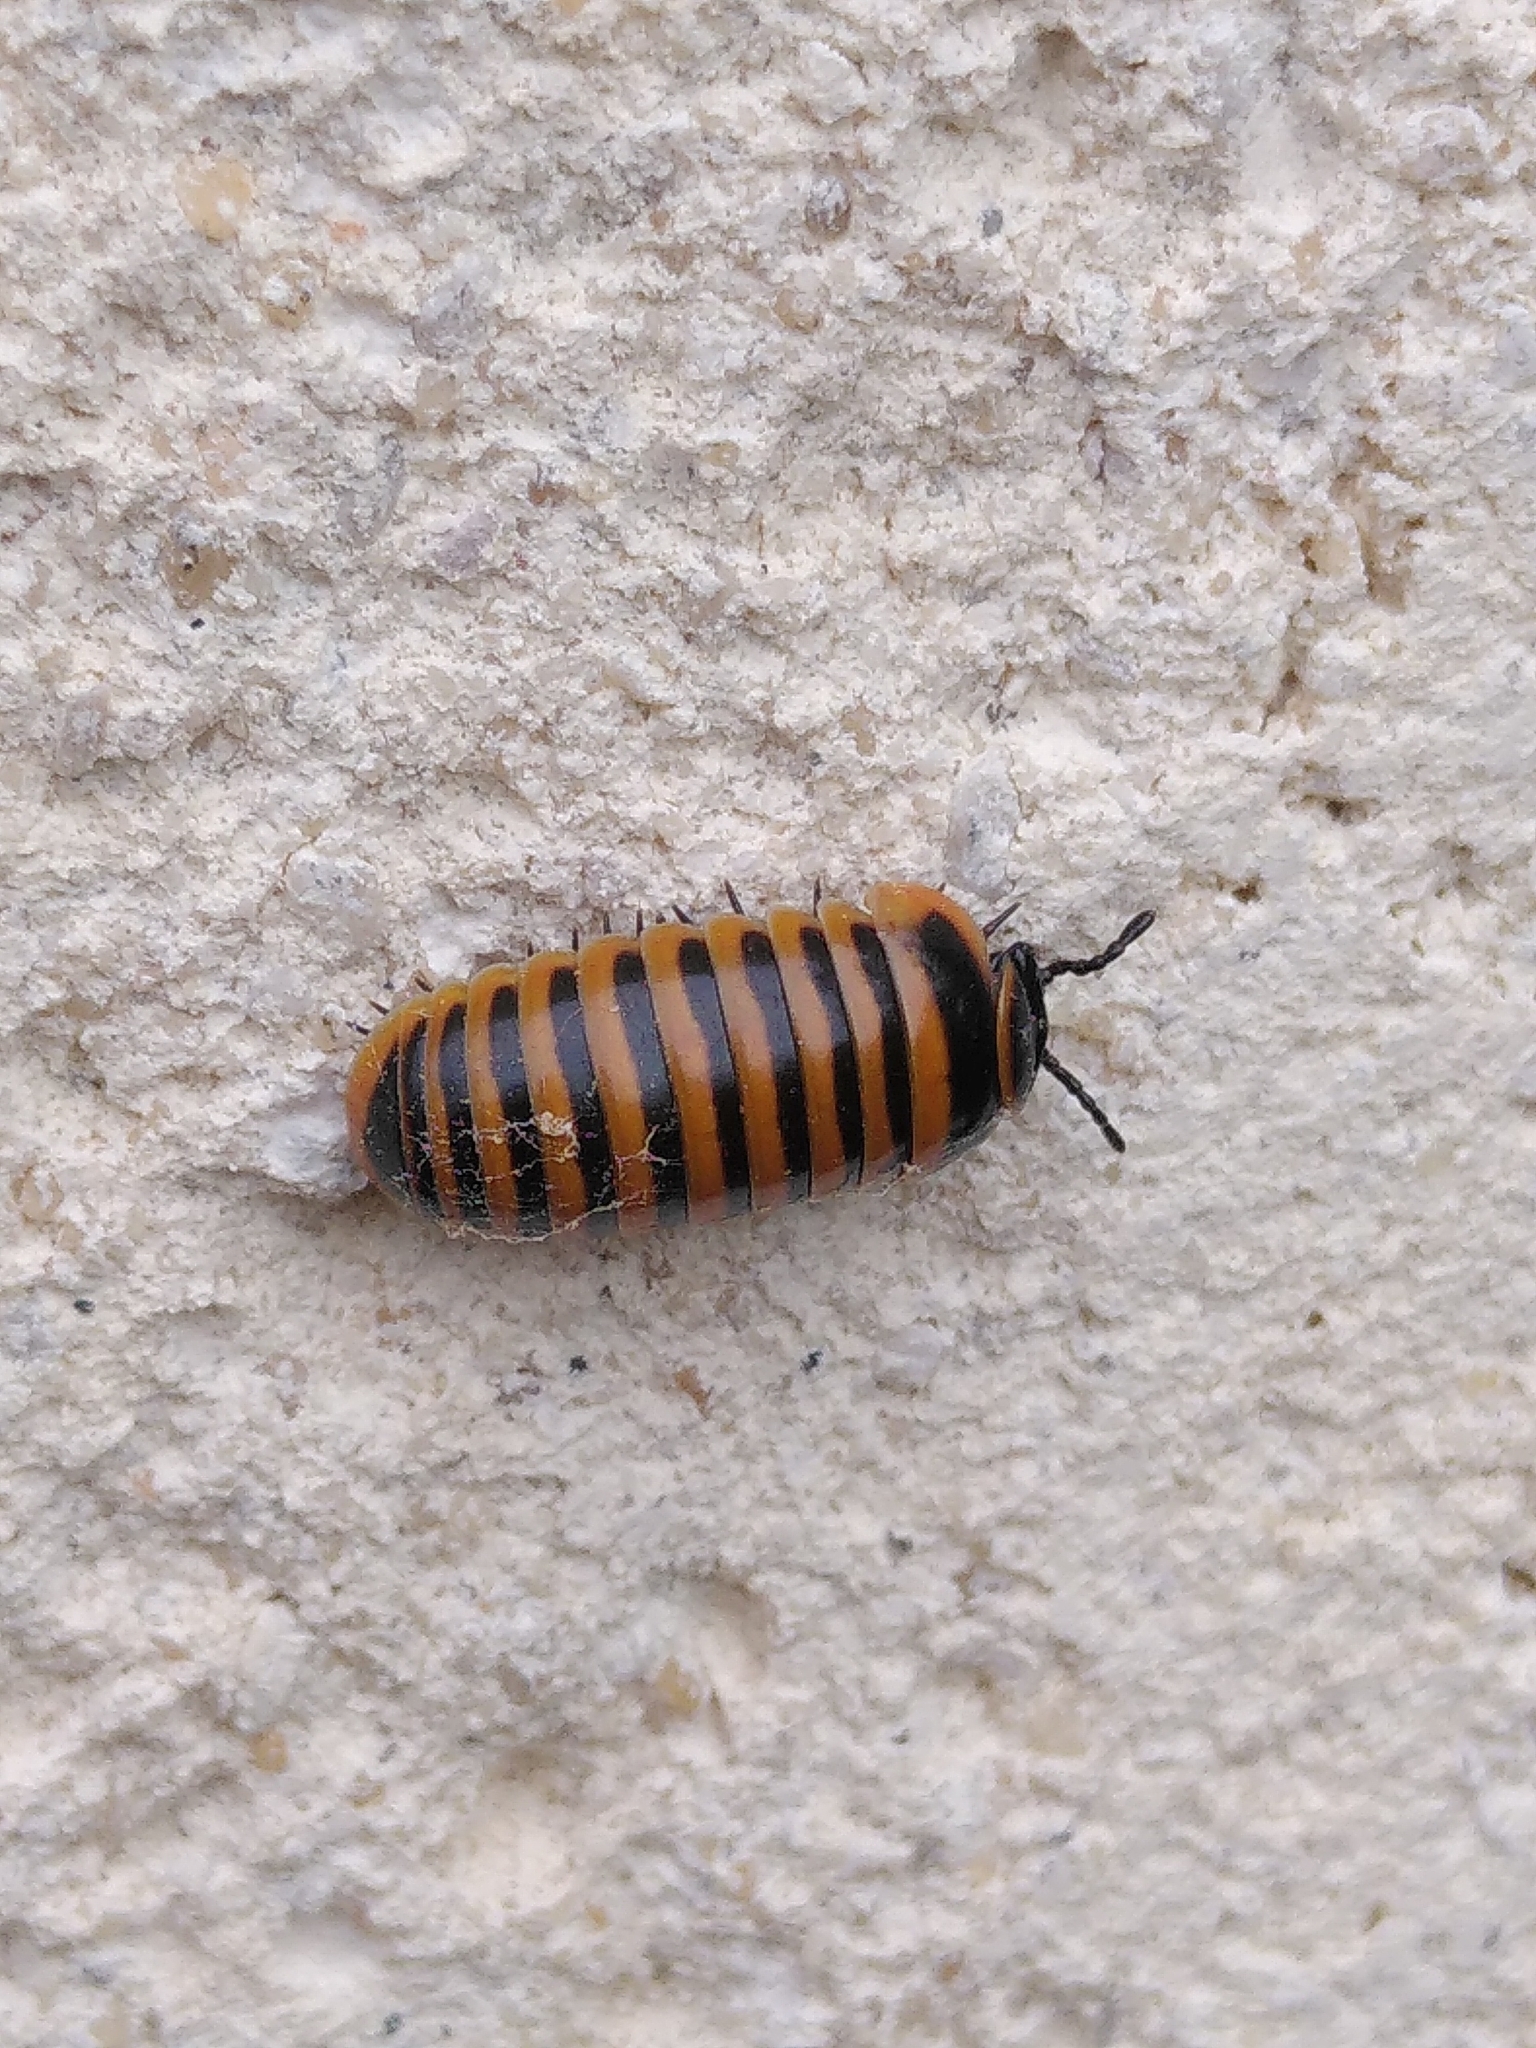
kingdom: Animalia
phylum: Arthropoda
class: Diplopoda
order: Glomerida
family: Glomeridae
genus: Glomeris
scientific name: Glomeris annulata
